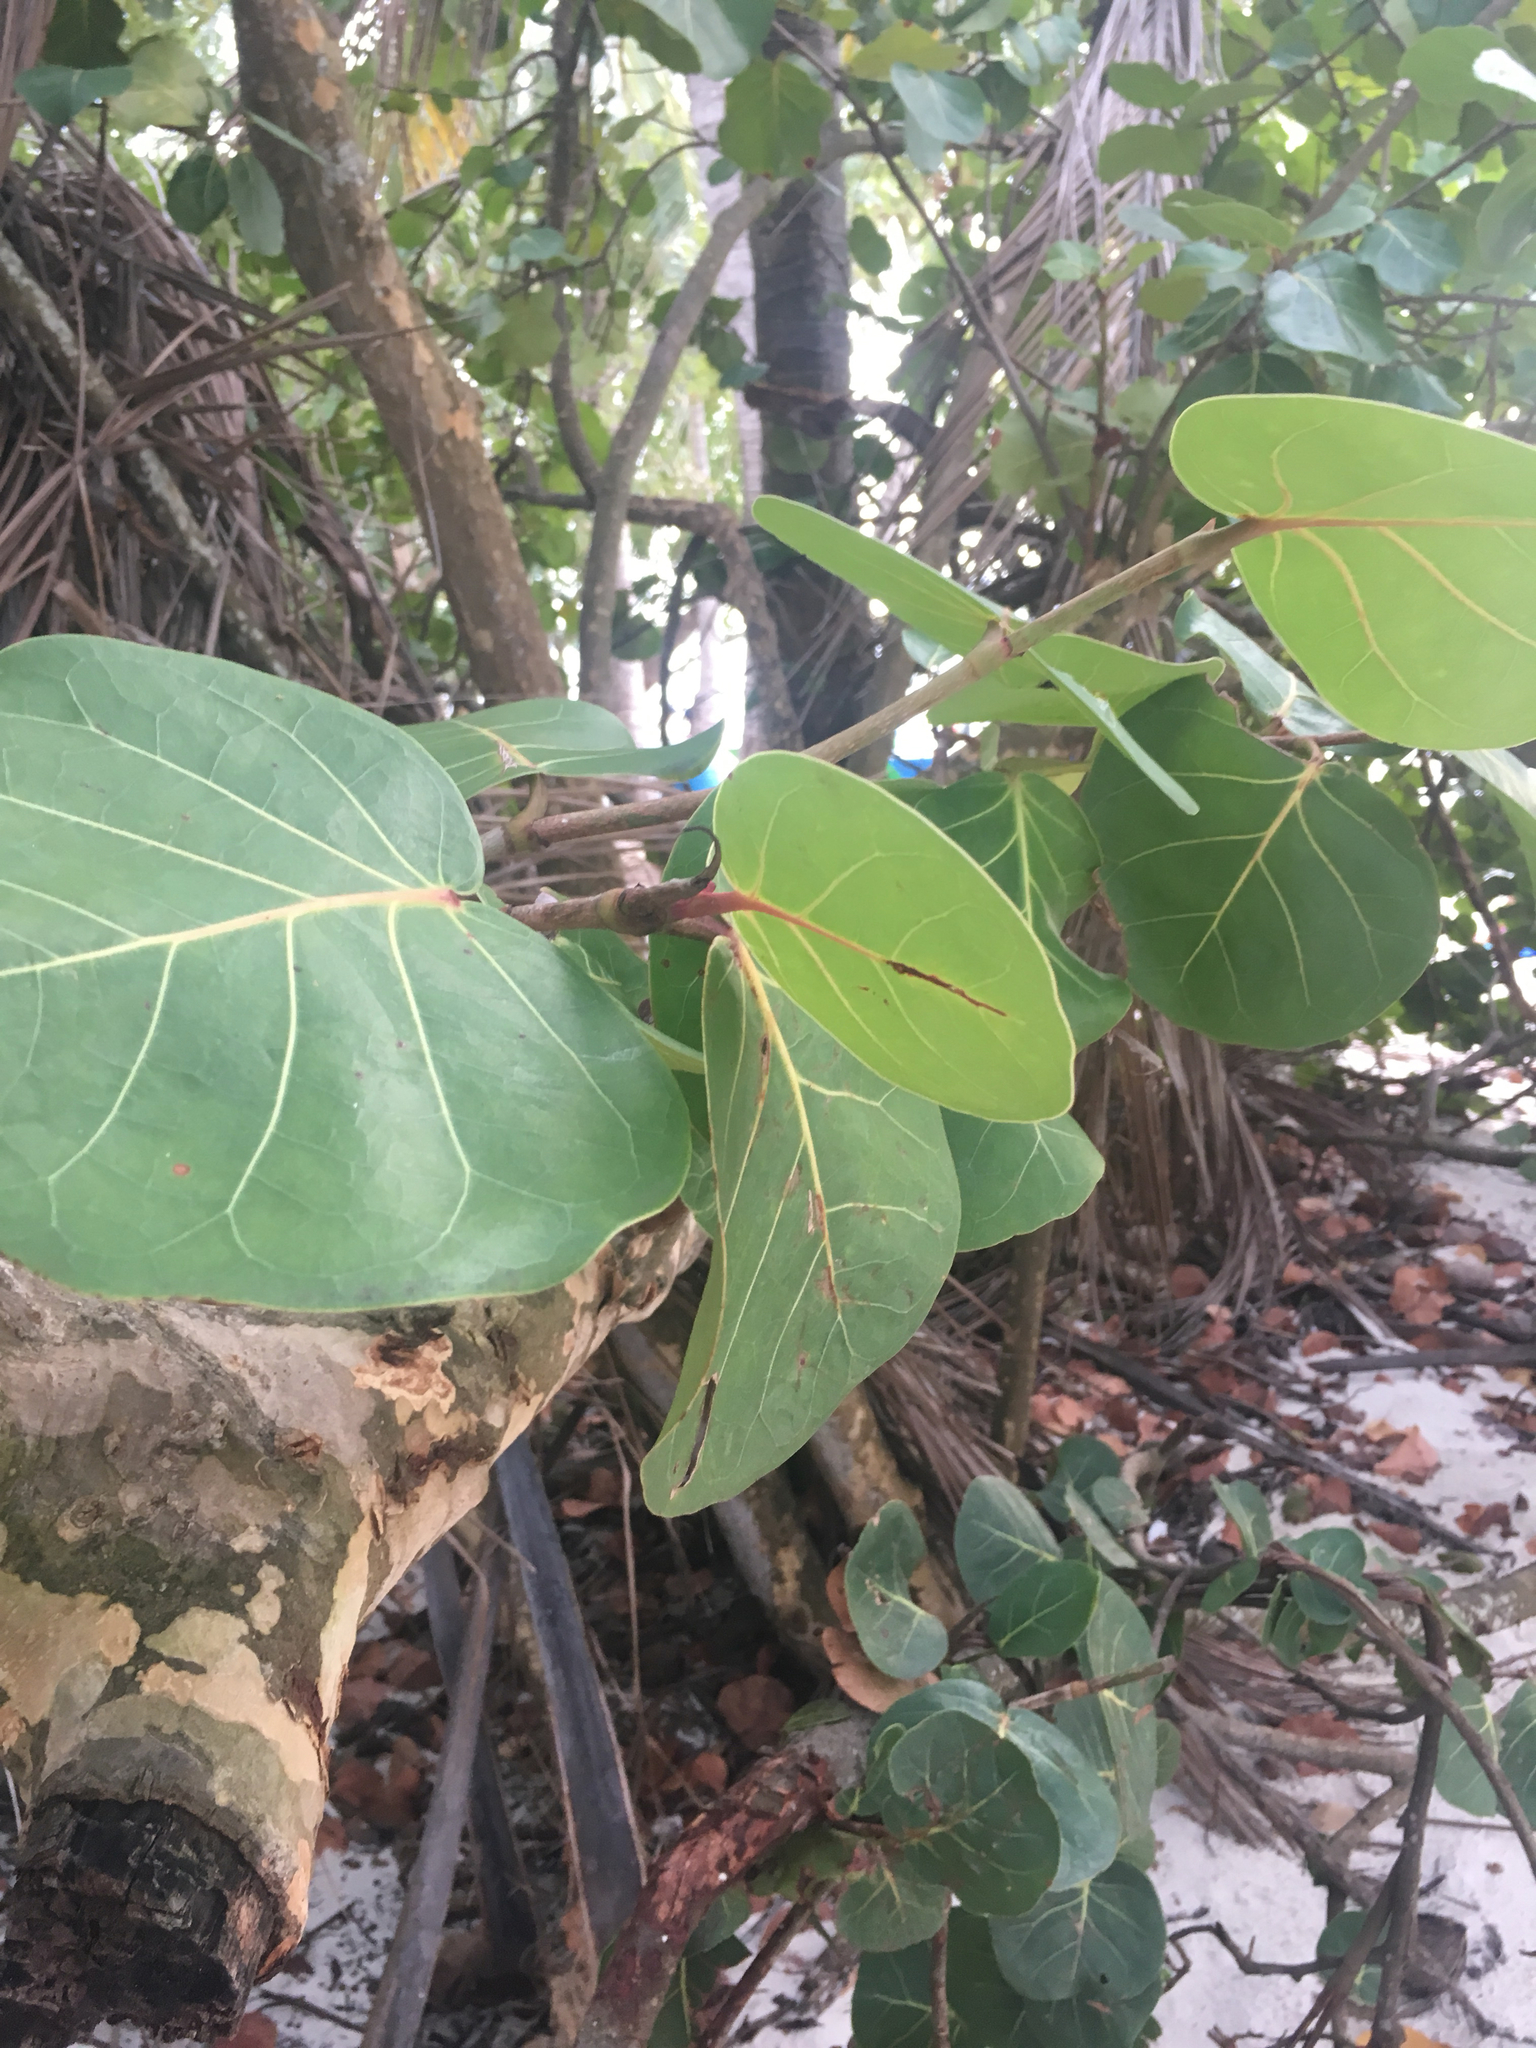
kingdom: Plantae
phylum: Tracheophyta
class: Magnoliopsida
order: Caryophyllales
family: Polygonaceae
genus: Coccoloba
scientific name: Coccoloba uvifera
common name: Seagrape
